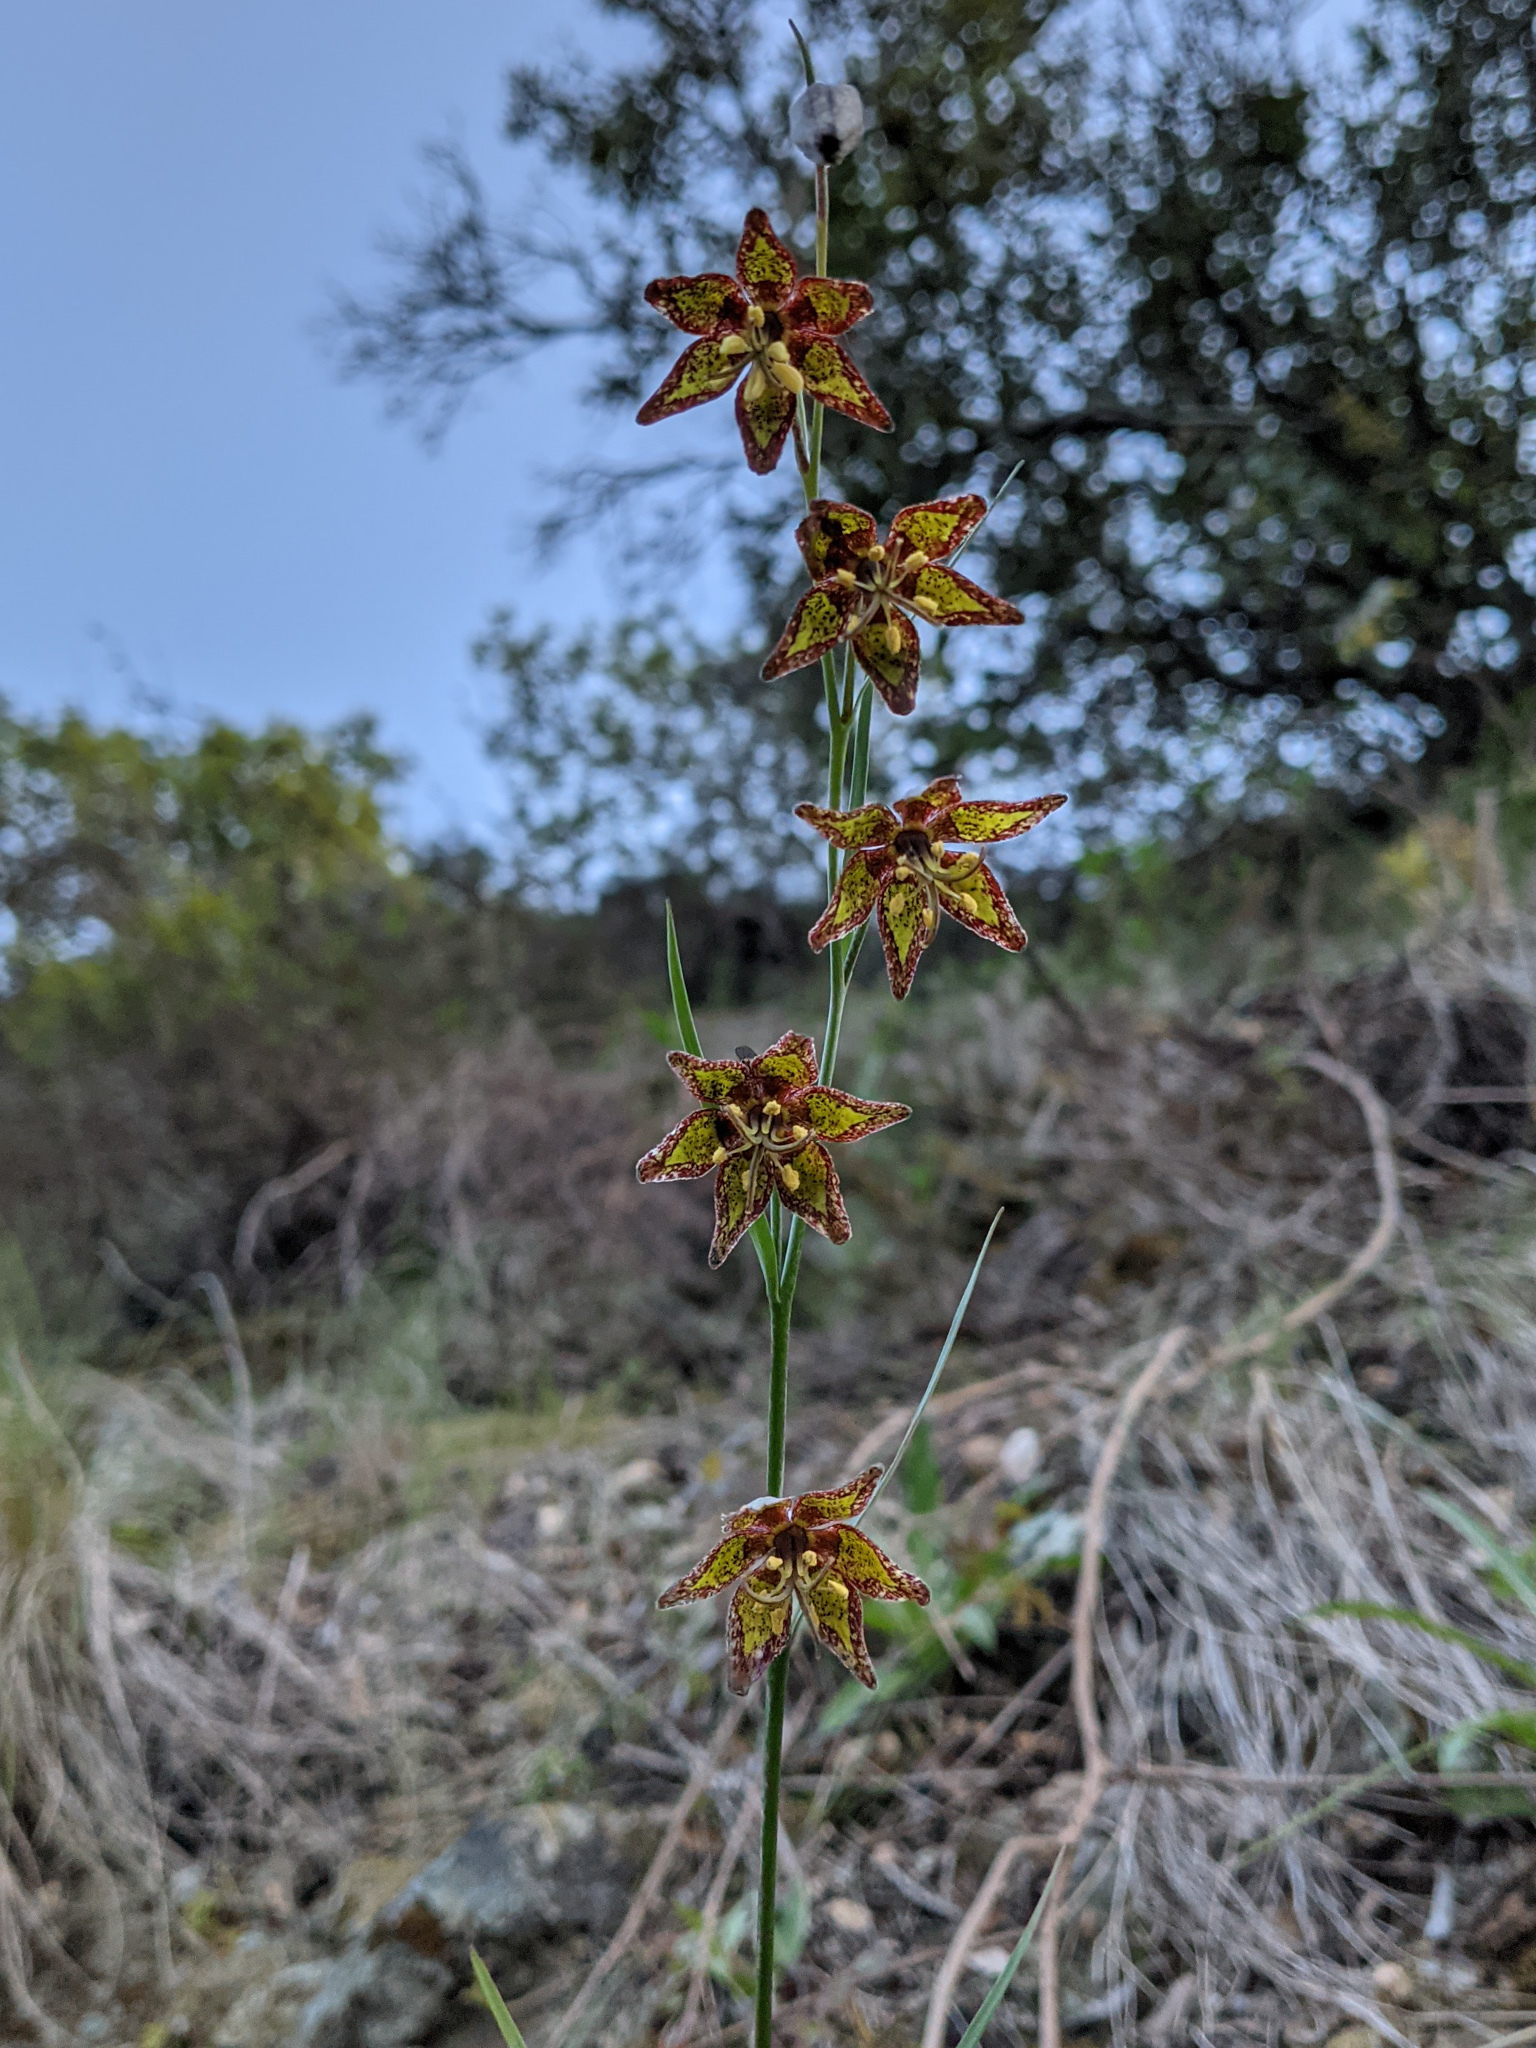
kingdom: Plantae
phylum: Tracheophyta
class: Liliopsida
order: Liliales
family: Liliaceae
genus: Fritillaria
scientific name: Fritillaria ojaiensis
